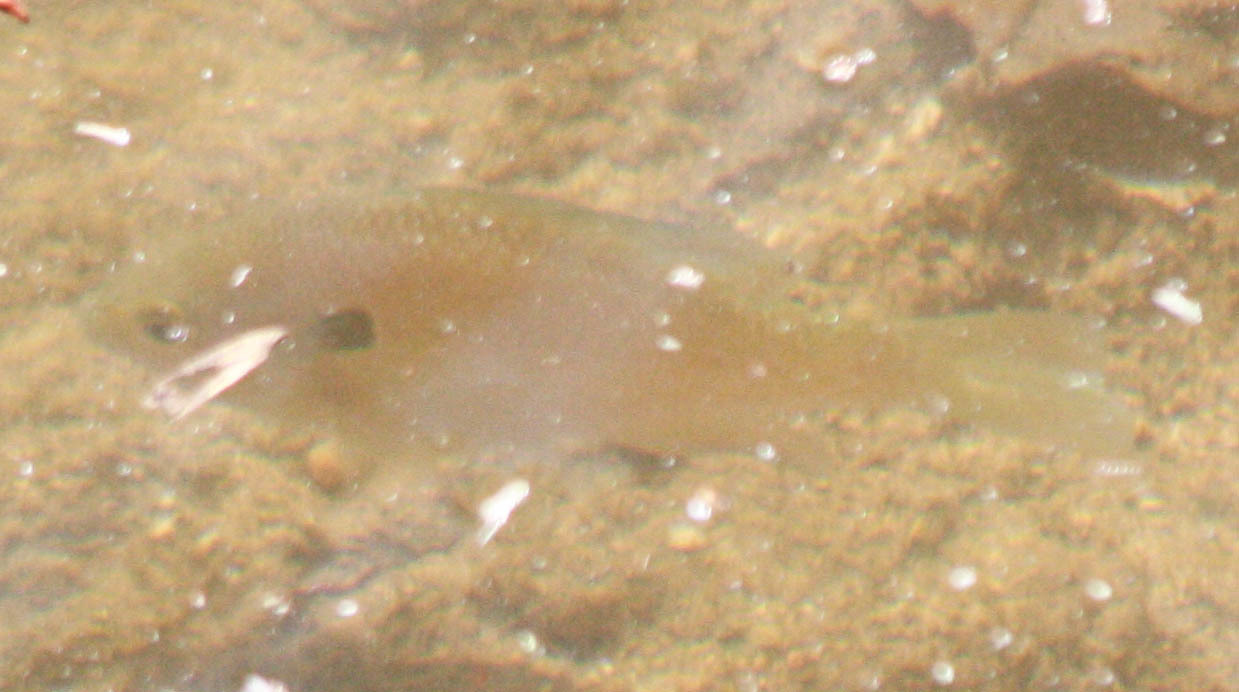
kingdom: Animalia
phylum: Chordata
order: Perciformes
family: Centrarchidae
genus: Lepomis
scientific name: Lepomis megalotis
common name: Longear sunfish
